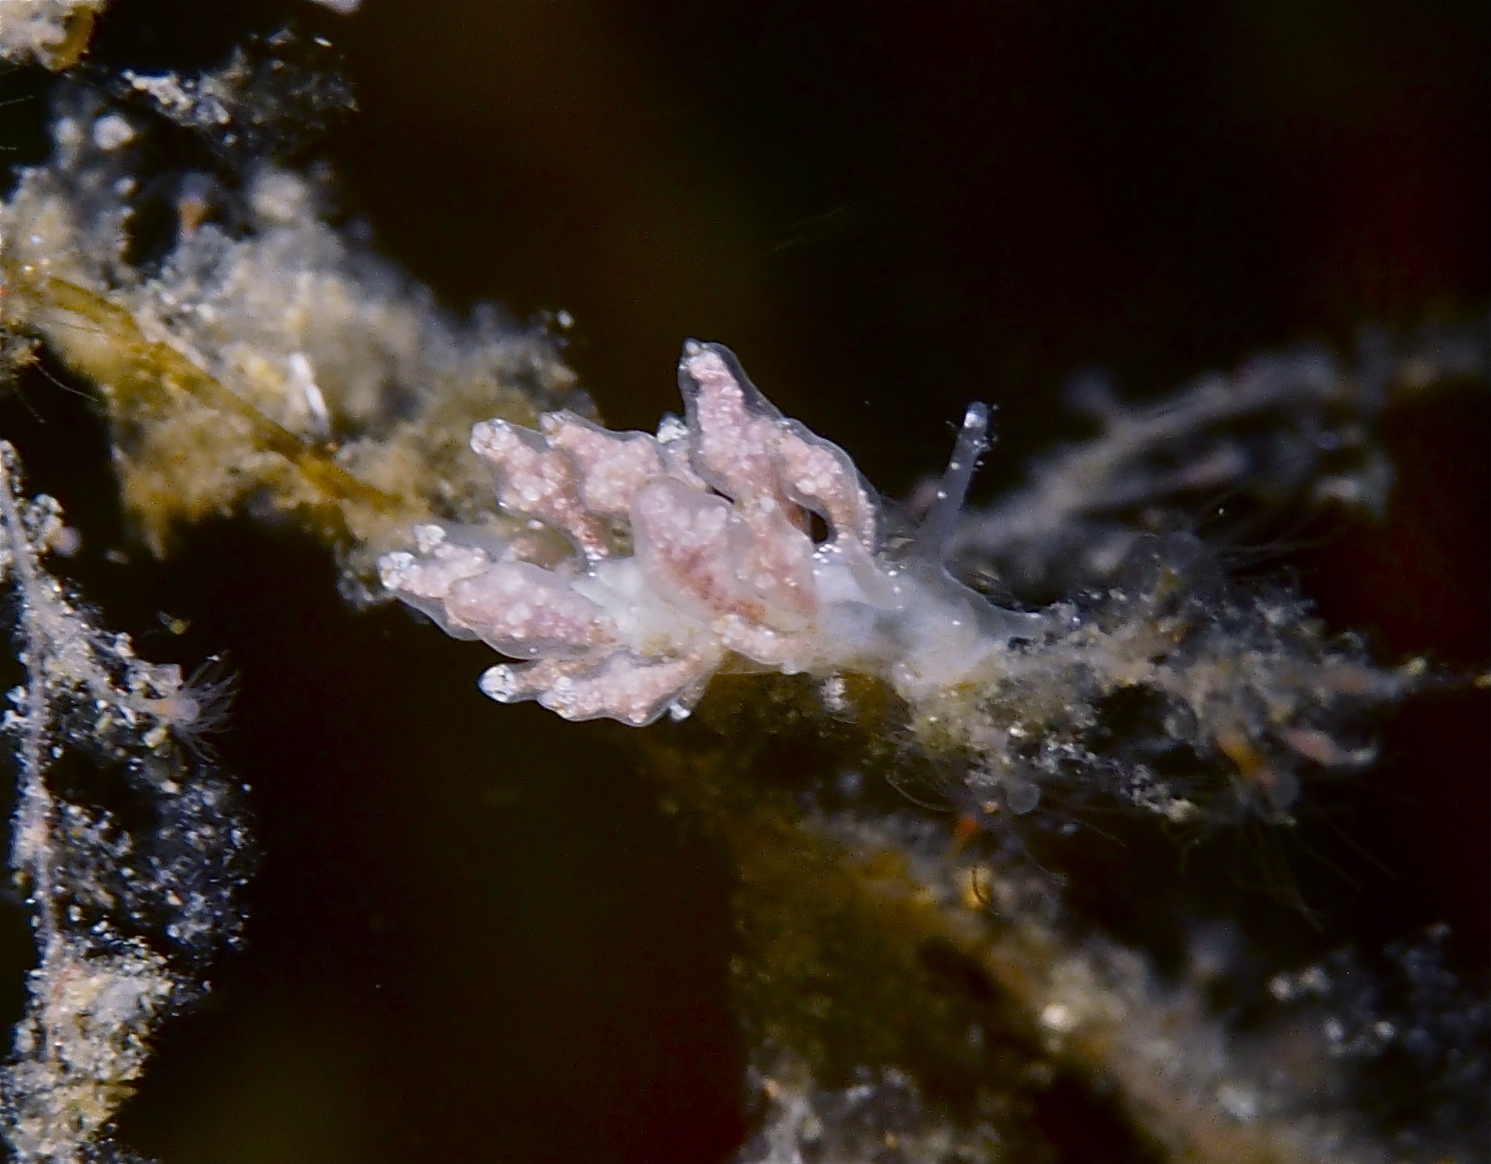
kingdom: Animalia
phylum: Mollusca
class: Gastropoda
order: Nudibranchia
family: Eubranchidae
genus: Eubranchus
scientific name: Eubranchus exiguus
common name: Balloon aeolis
